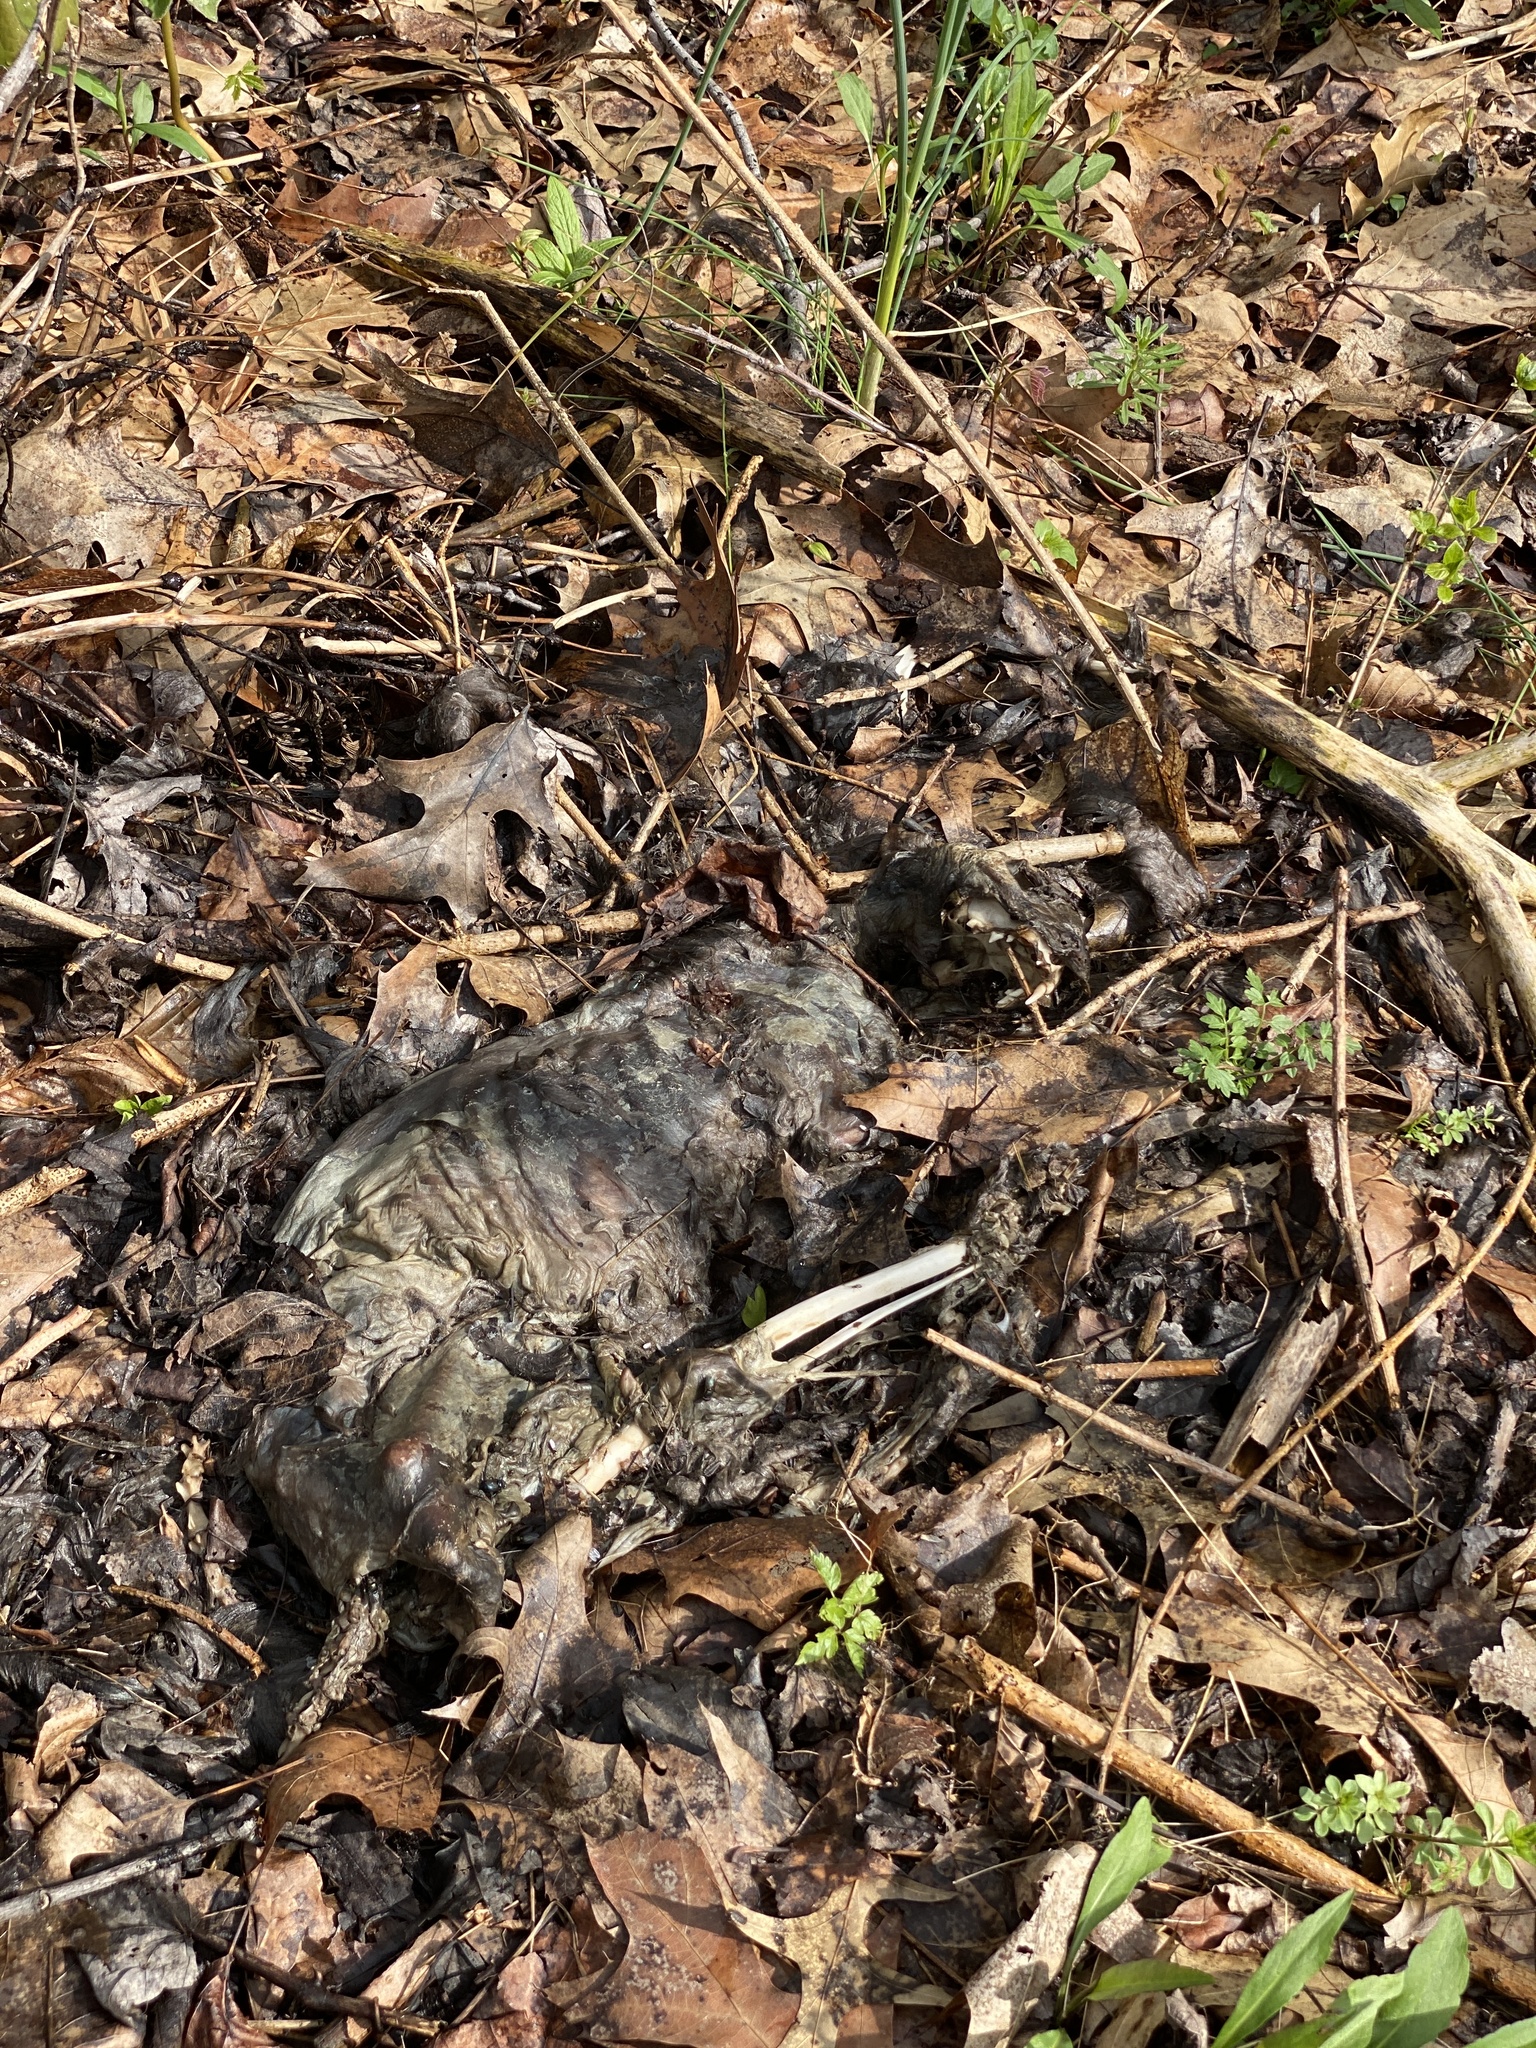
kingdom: Animalia
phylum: Chordata
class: Mammalia
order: Carnivora
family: Felidae
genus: Felis
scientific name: Felis catus
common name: Domestic cat
